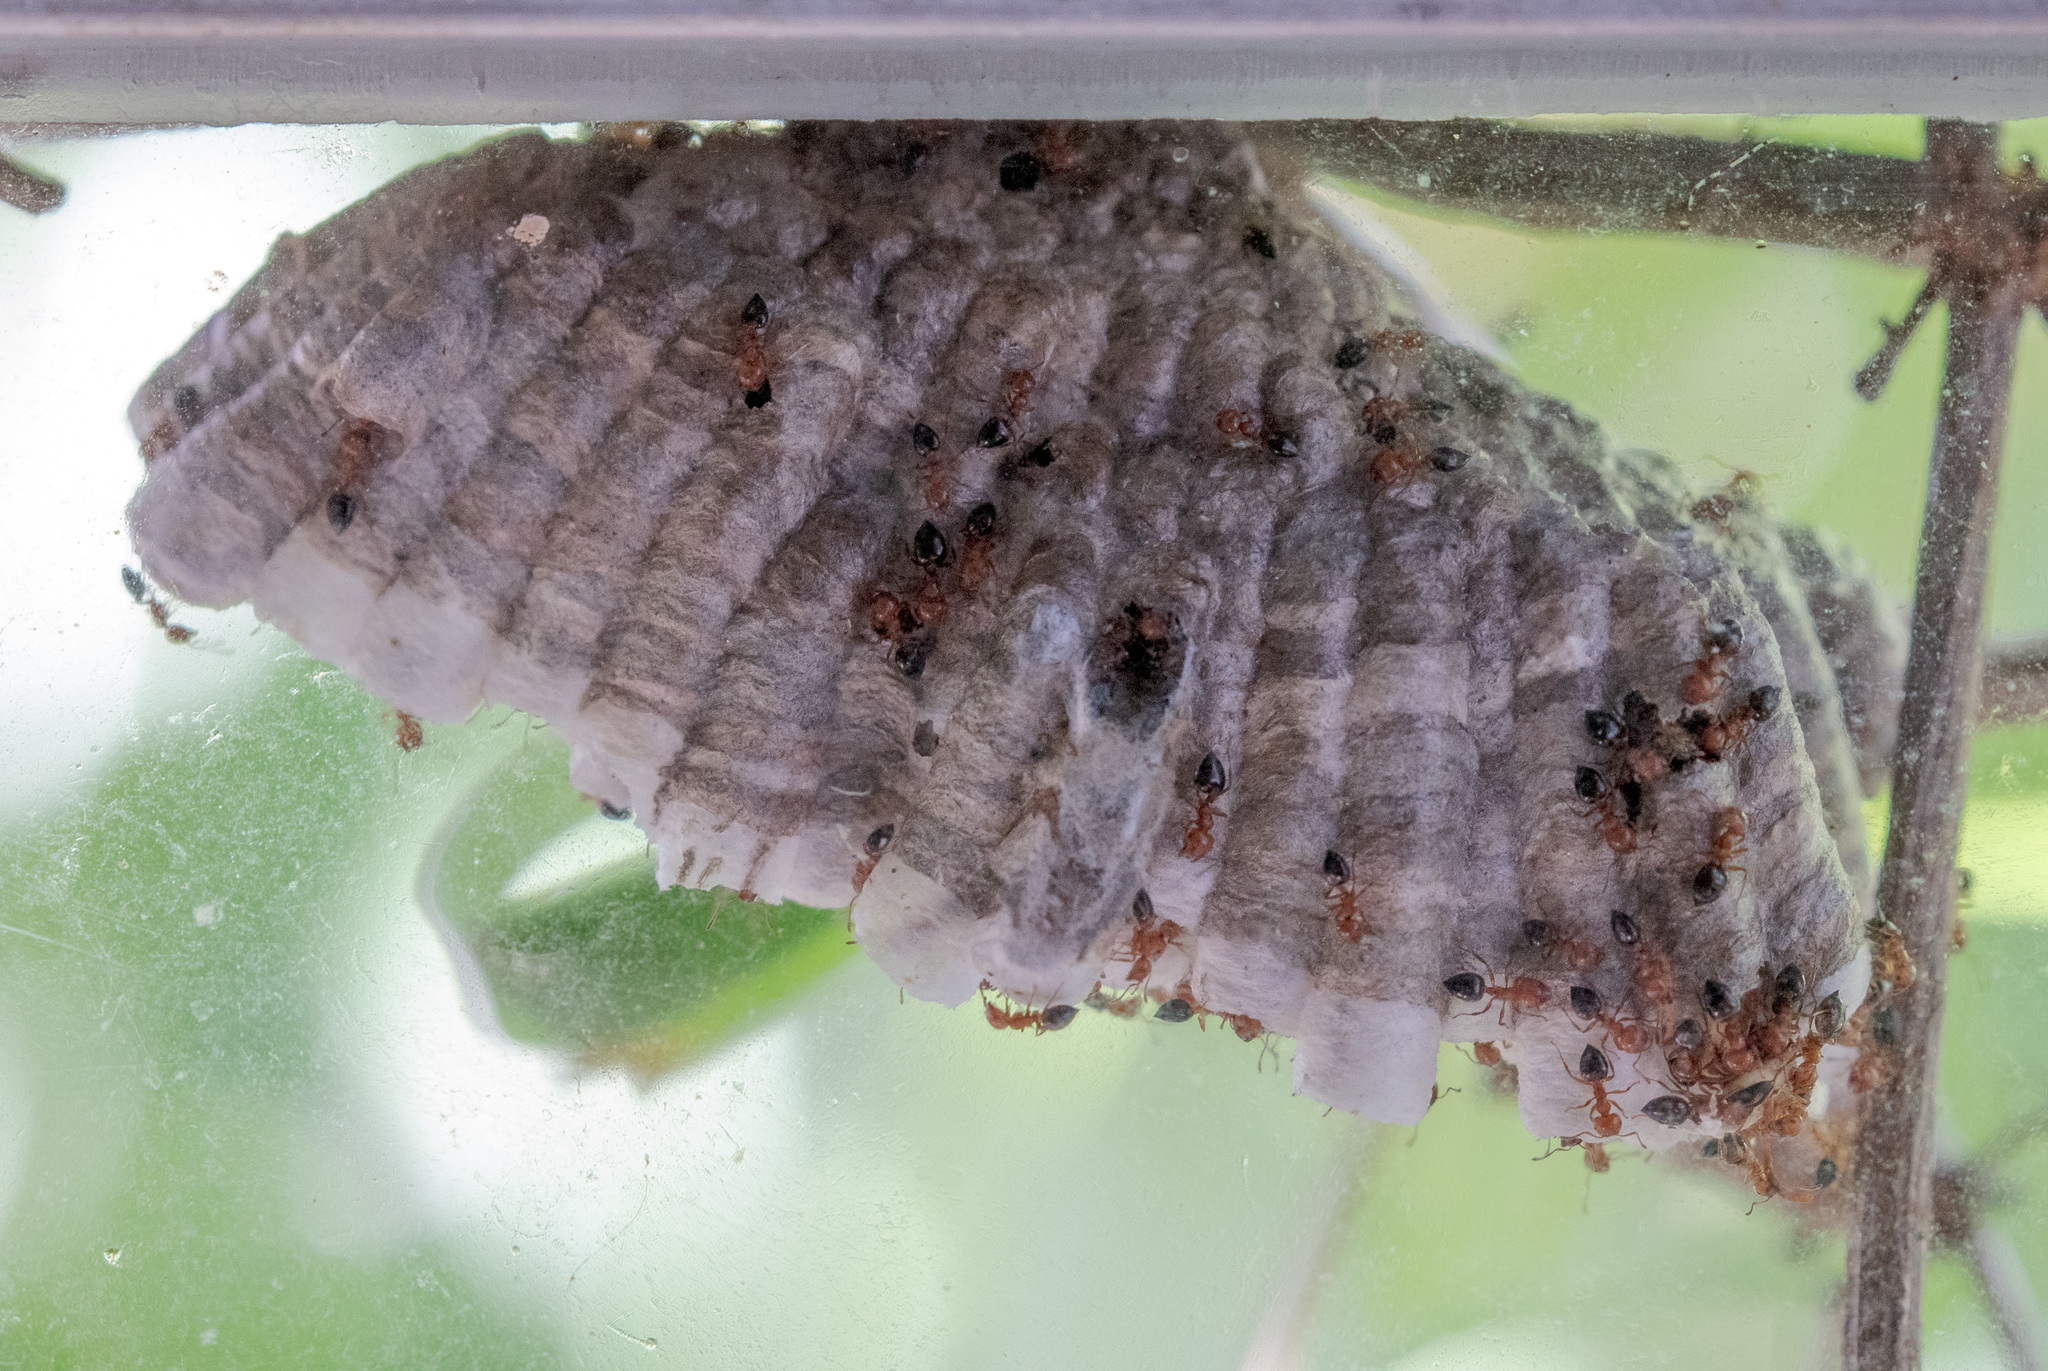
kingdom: Animalia
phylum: Arthropoda
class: Insecta
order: Hymenoptera
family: Eumenidae
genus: Polistes
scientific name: Polistes exclamans
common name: Paper wasp
